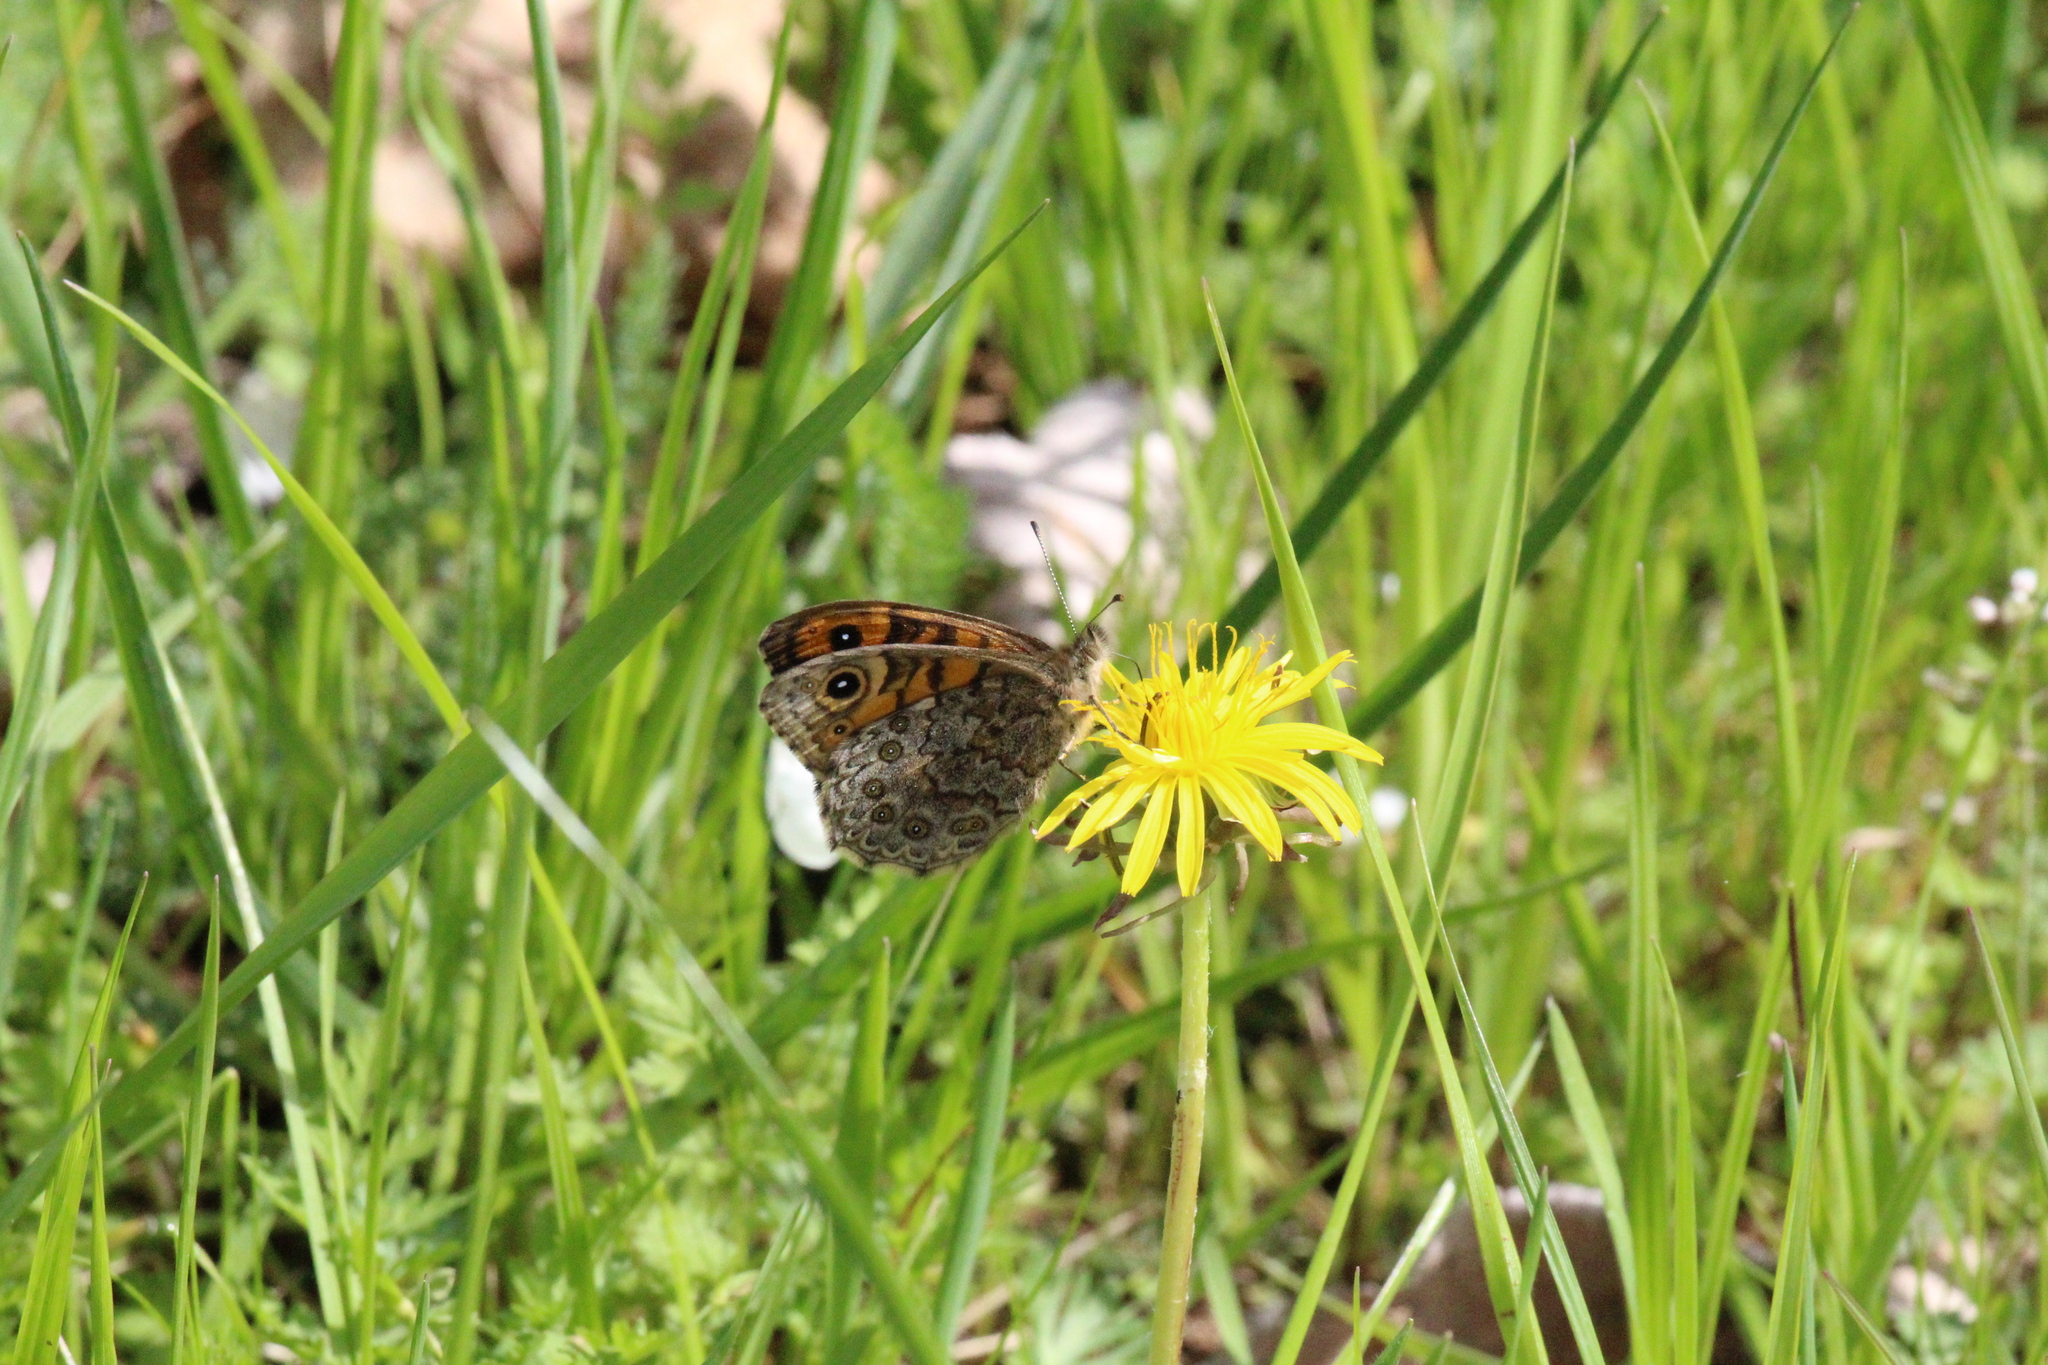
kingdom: Animalia
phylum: Arthropoda
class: Insecta
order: Lepidoptera
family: Nymphalidae
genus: Pararge
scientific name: Pararge Lasiommata megera
